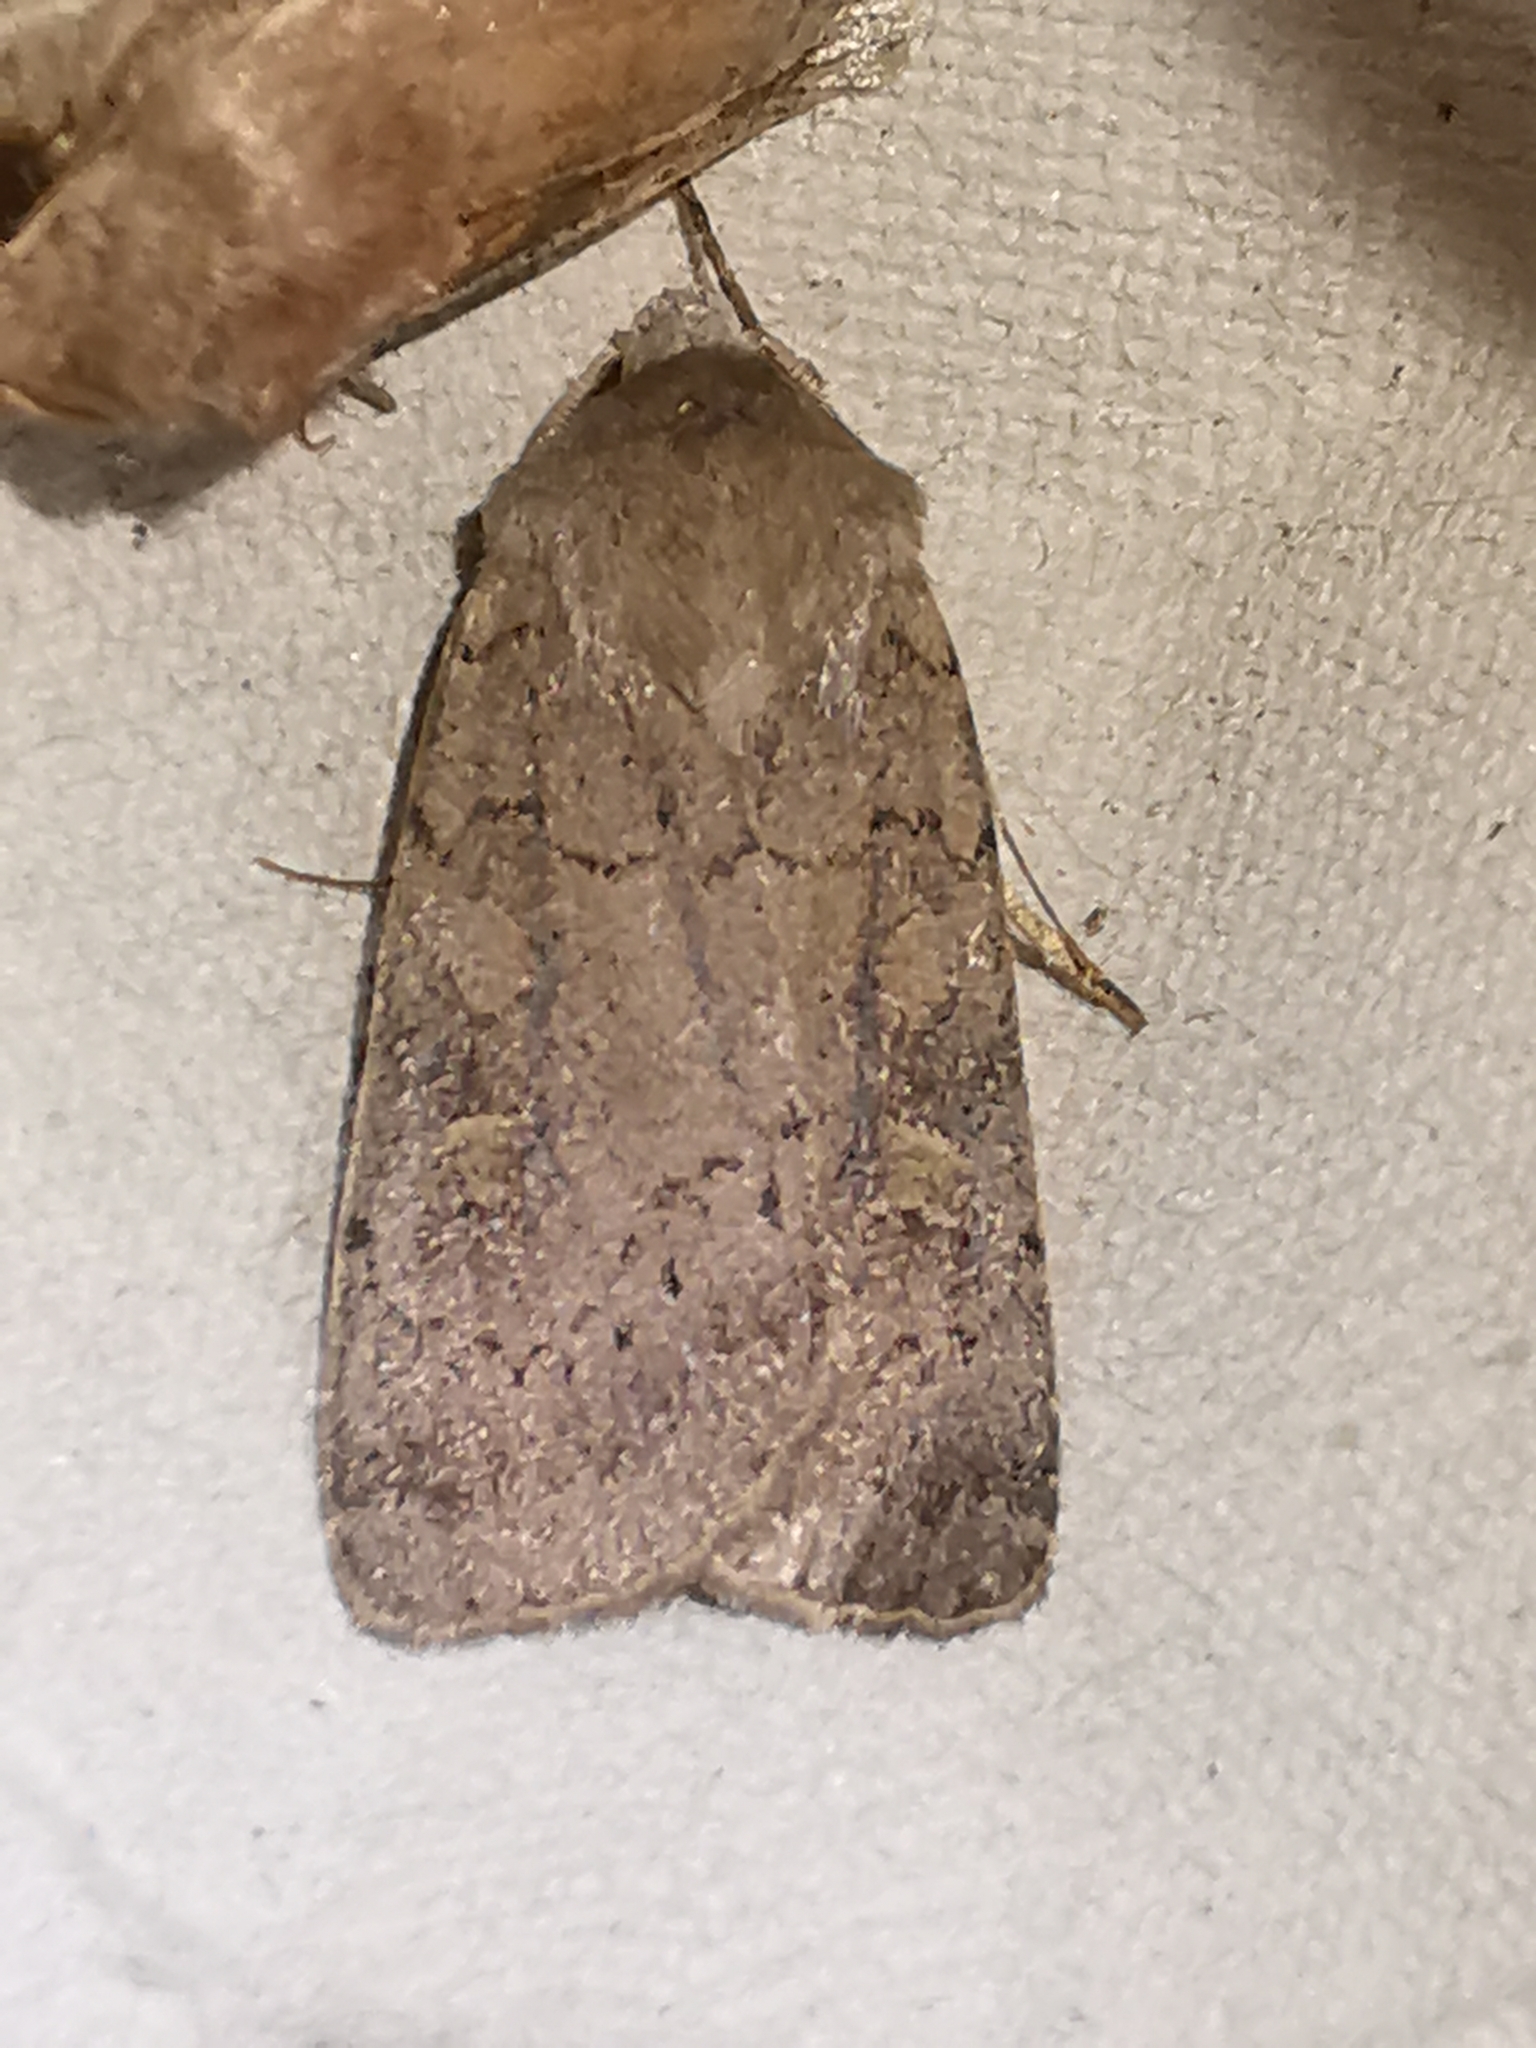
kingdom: Animalia
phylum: Arthropoda
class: Insecta
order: Lepidoptera
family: Noctuidae
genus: Xestia
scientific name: Xestia xanthographa
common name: Square-spot rustic
